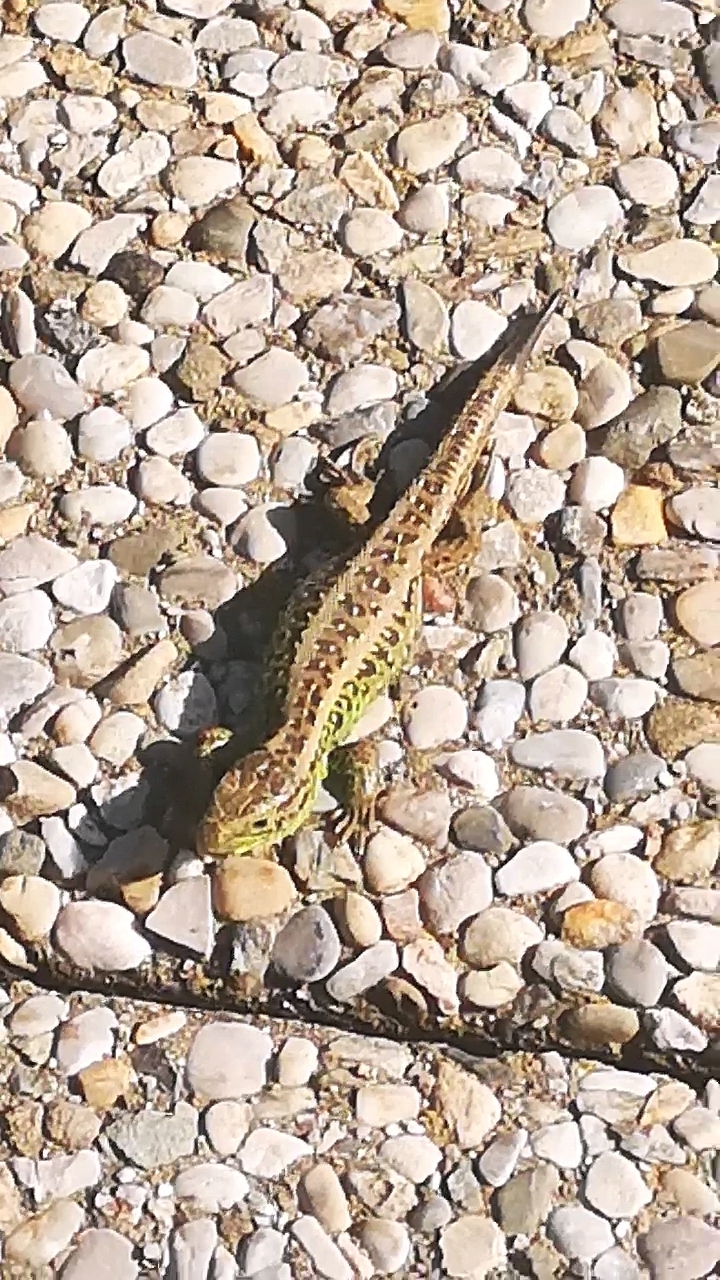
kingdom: Animalia
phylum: Chordata
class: Squamata
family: Lacertidae
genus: Lacerta
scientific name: Lacerta agilis
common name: Sand lizard
